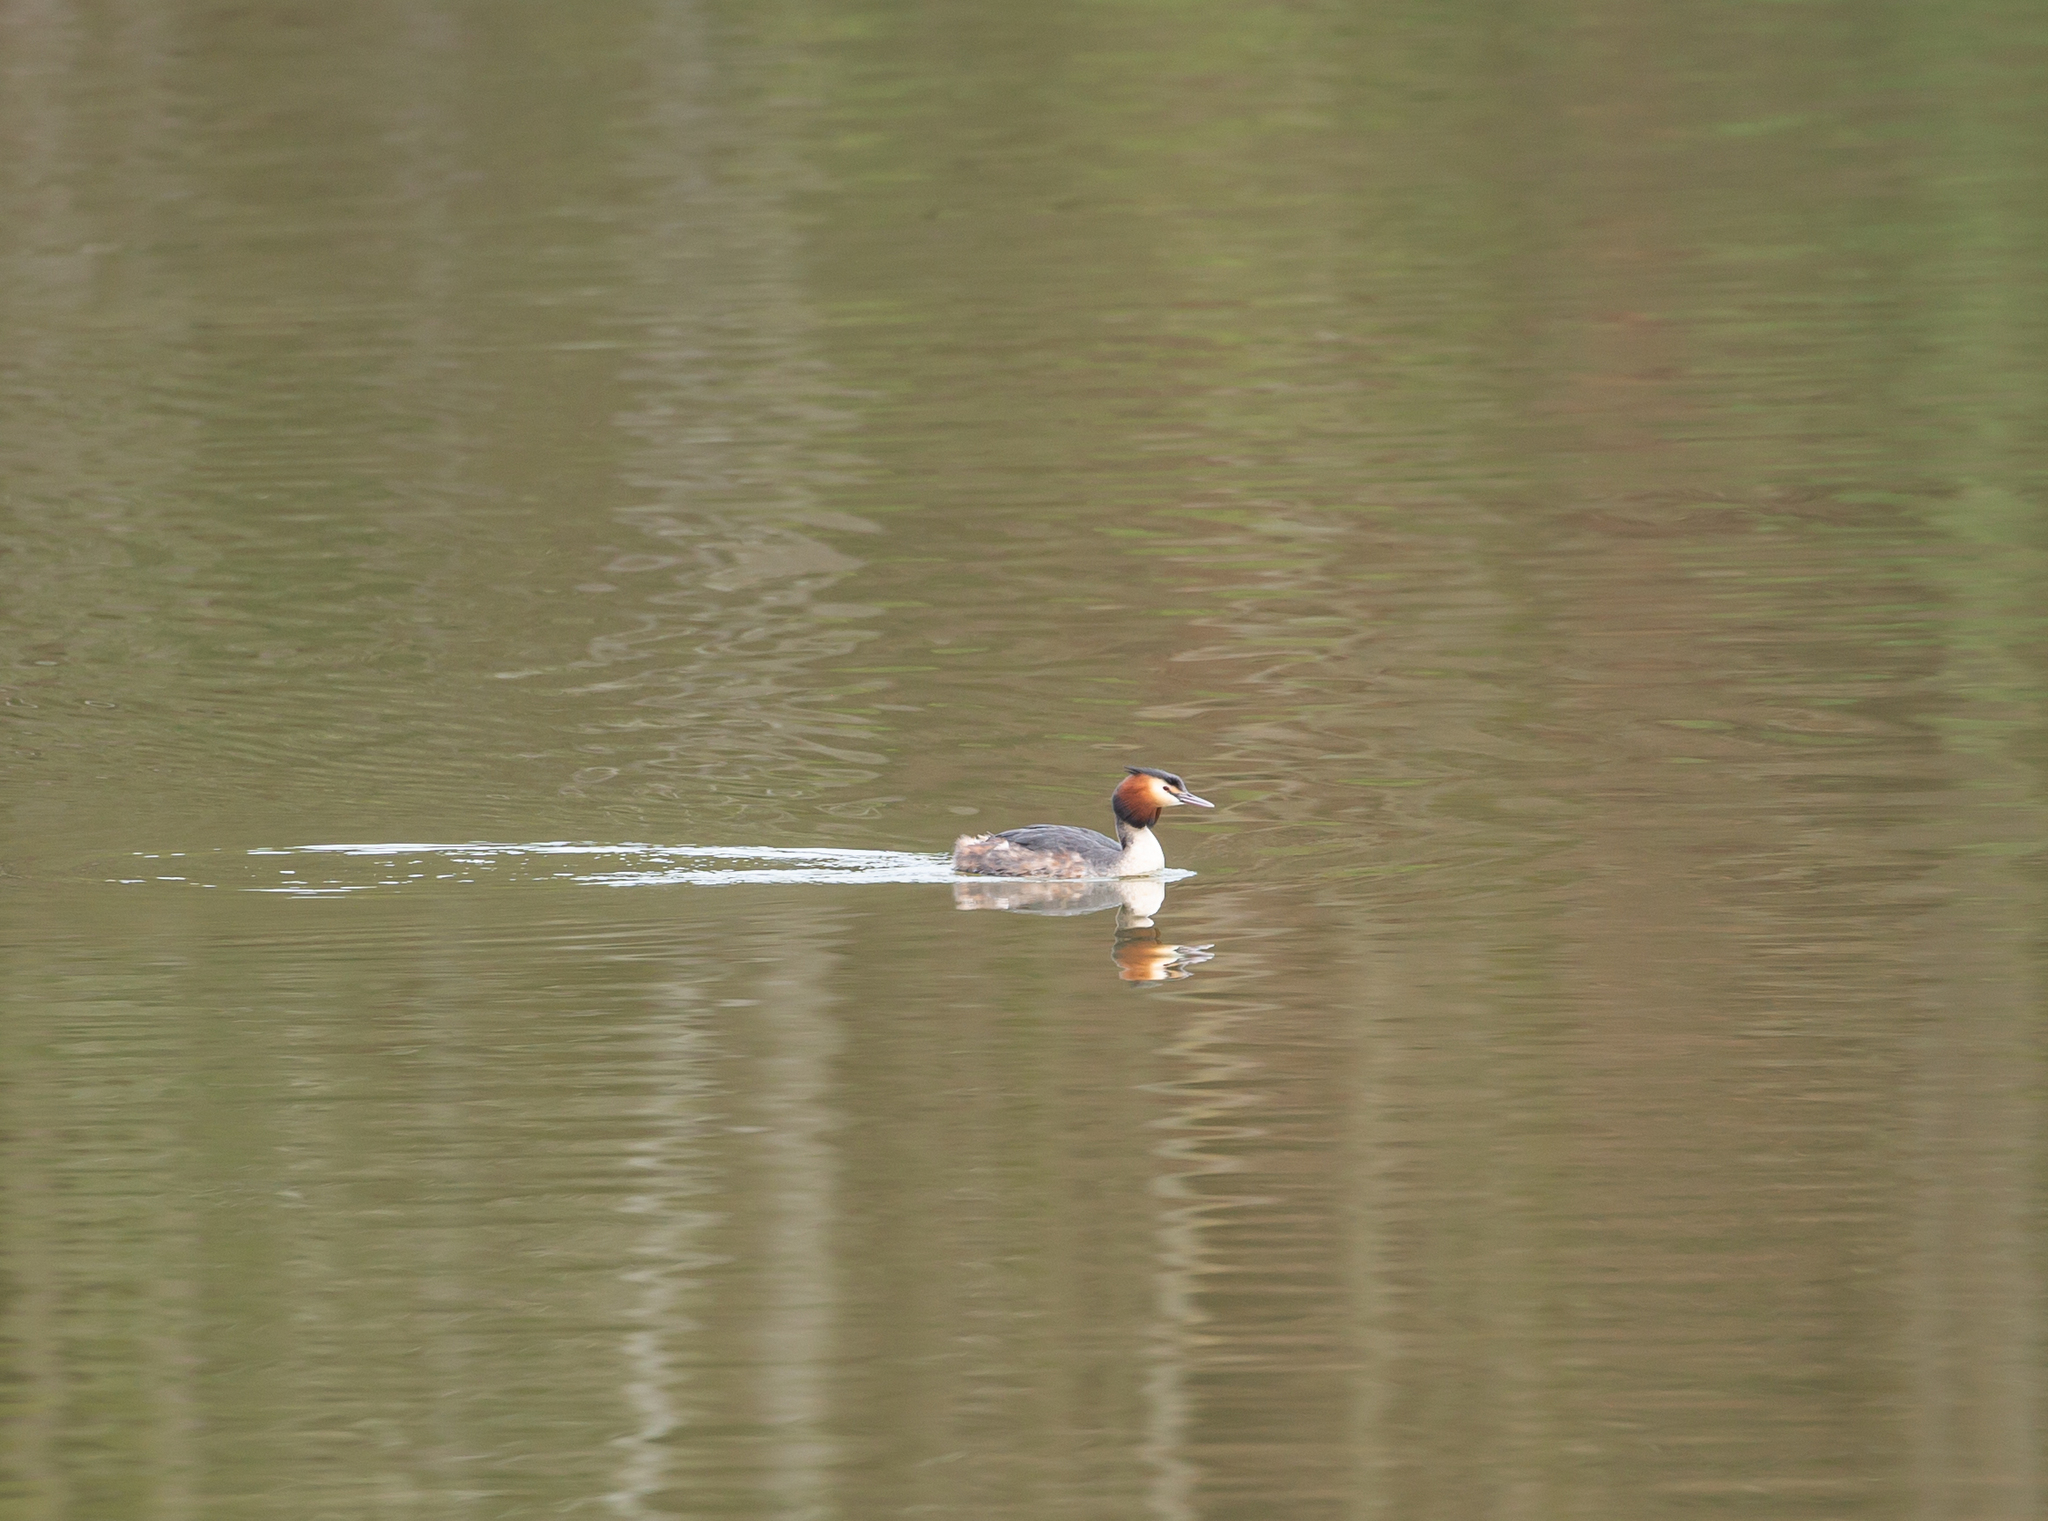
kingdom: Animalia
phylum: Chordata
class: Aves
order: Podicipediformes
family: Podicipedidae
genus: Podiceps
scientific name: Podiceps cristatus
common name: Great crested grebe
